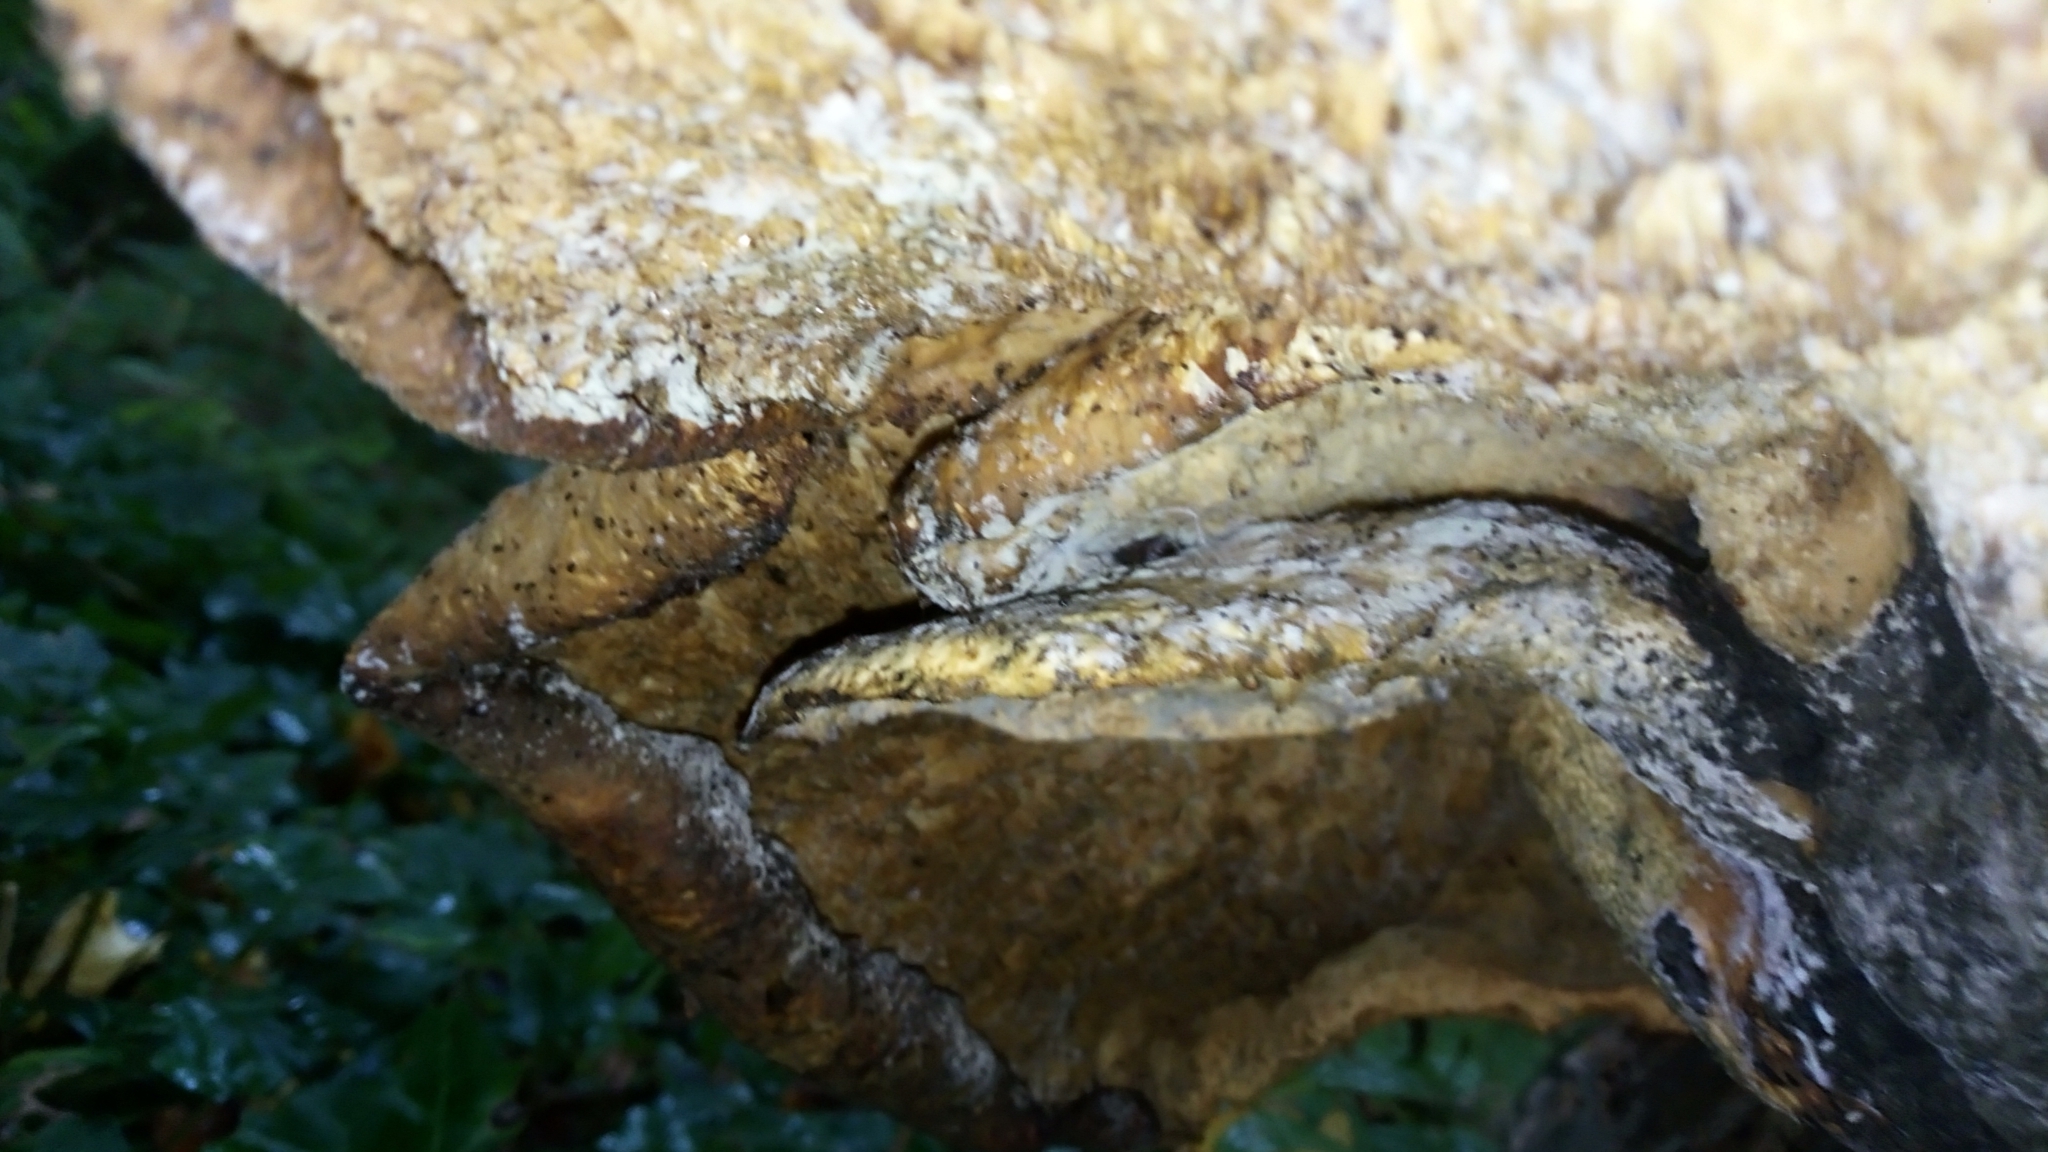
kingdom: Fungi
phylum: Basidiomycota
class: Agaricomycetes
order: Polyporales
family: Polyporaceae
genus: Cerioporus
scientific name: Cerioporus squamosus
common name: Dryad's saddle
